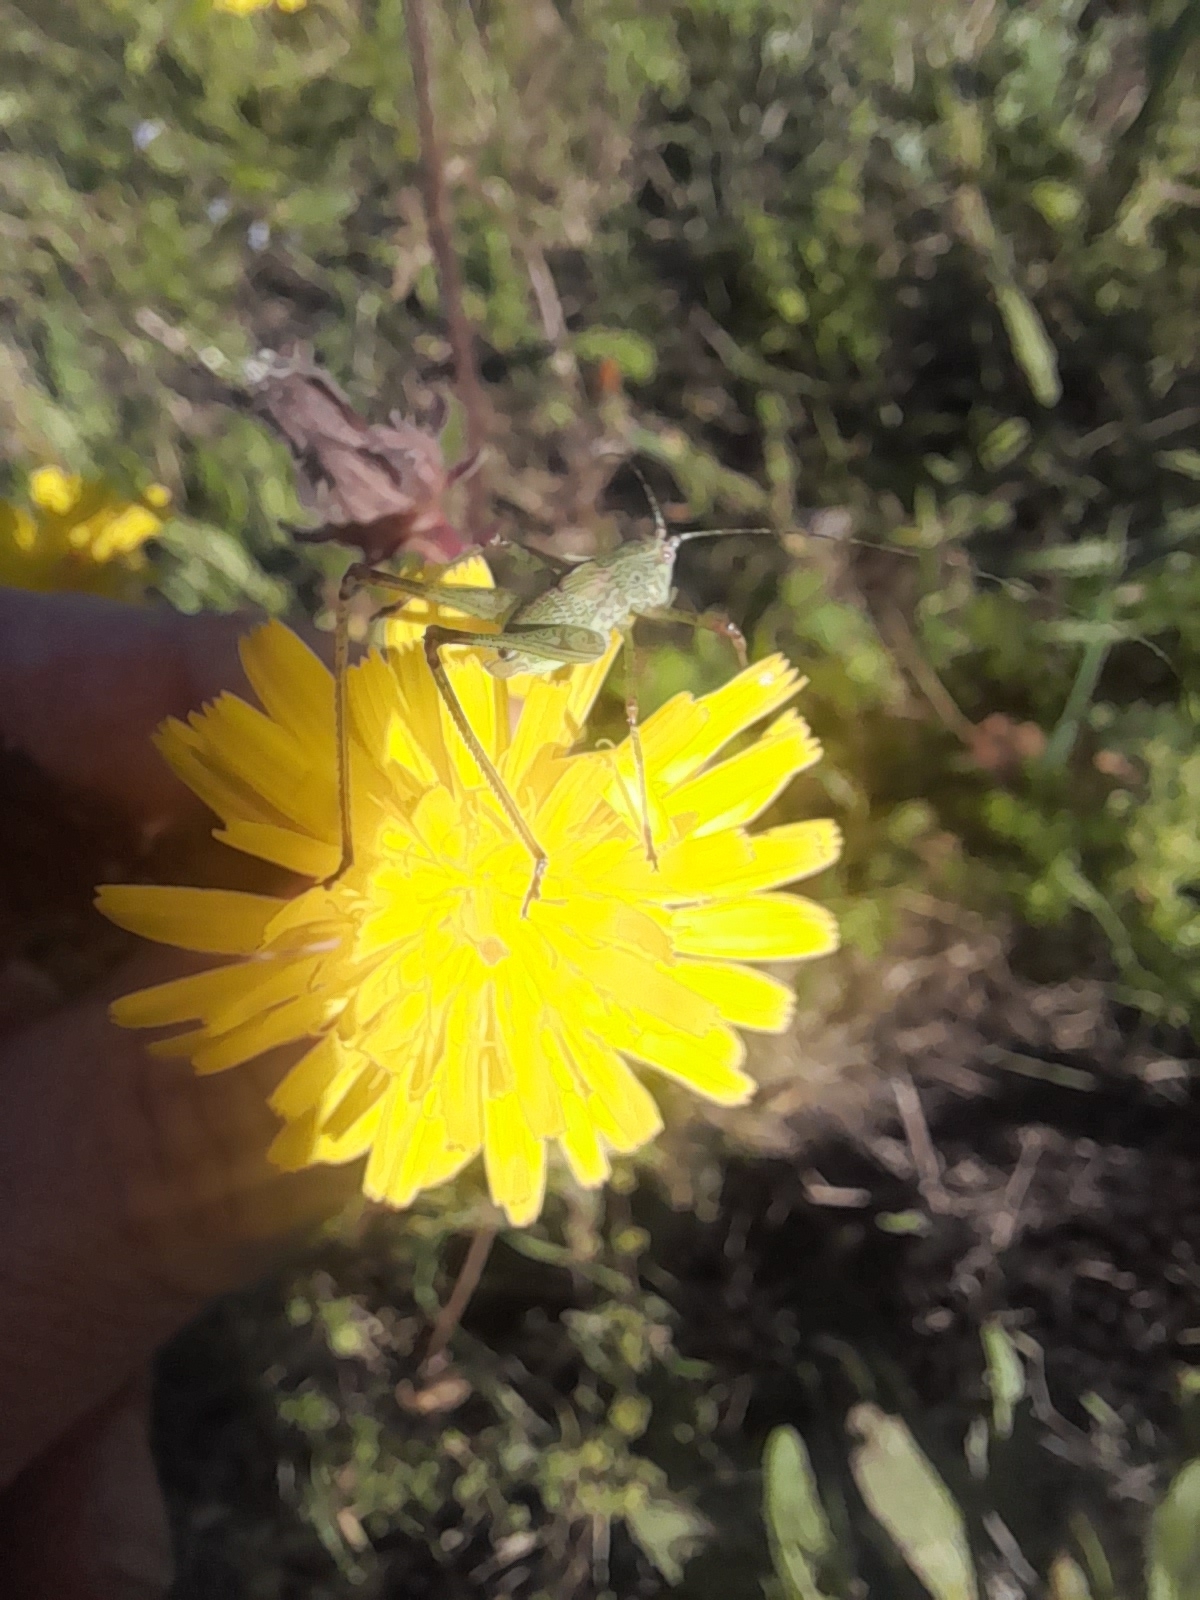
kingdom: Animalia
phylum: Arthropoda
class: Insecta
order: Orthoptera
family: Tettigoniidae
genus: Phaneroptera
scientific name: Phaneroptera nana
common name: Southern sickle bush-cricket
